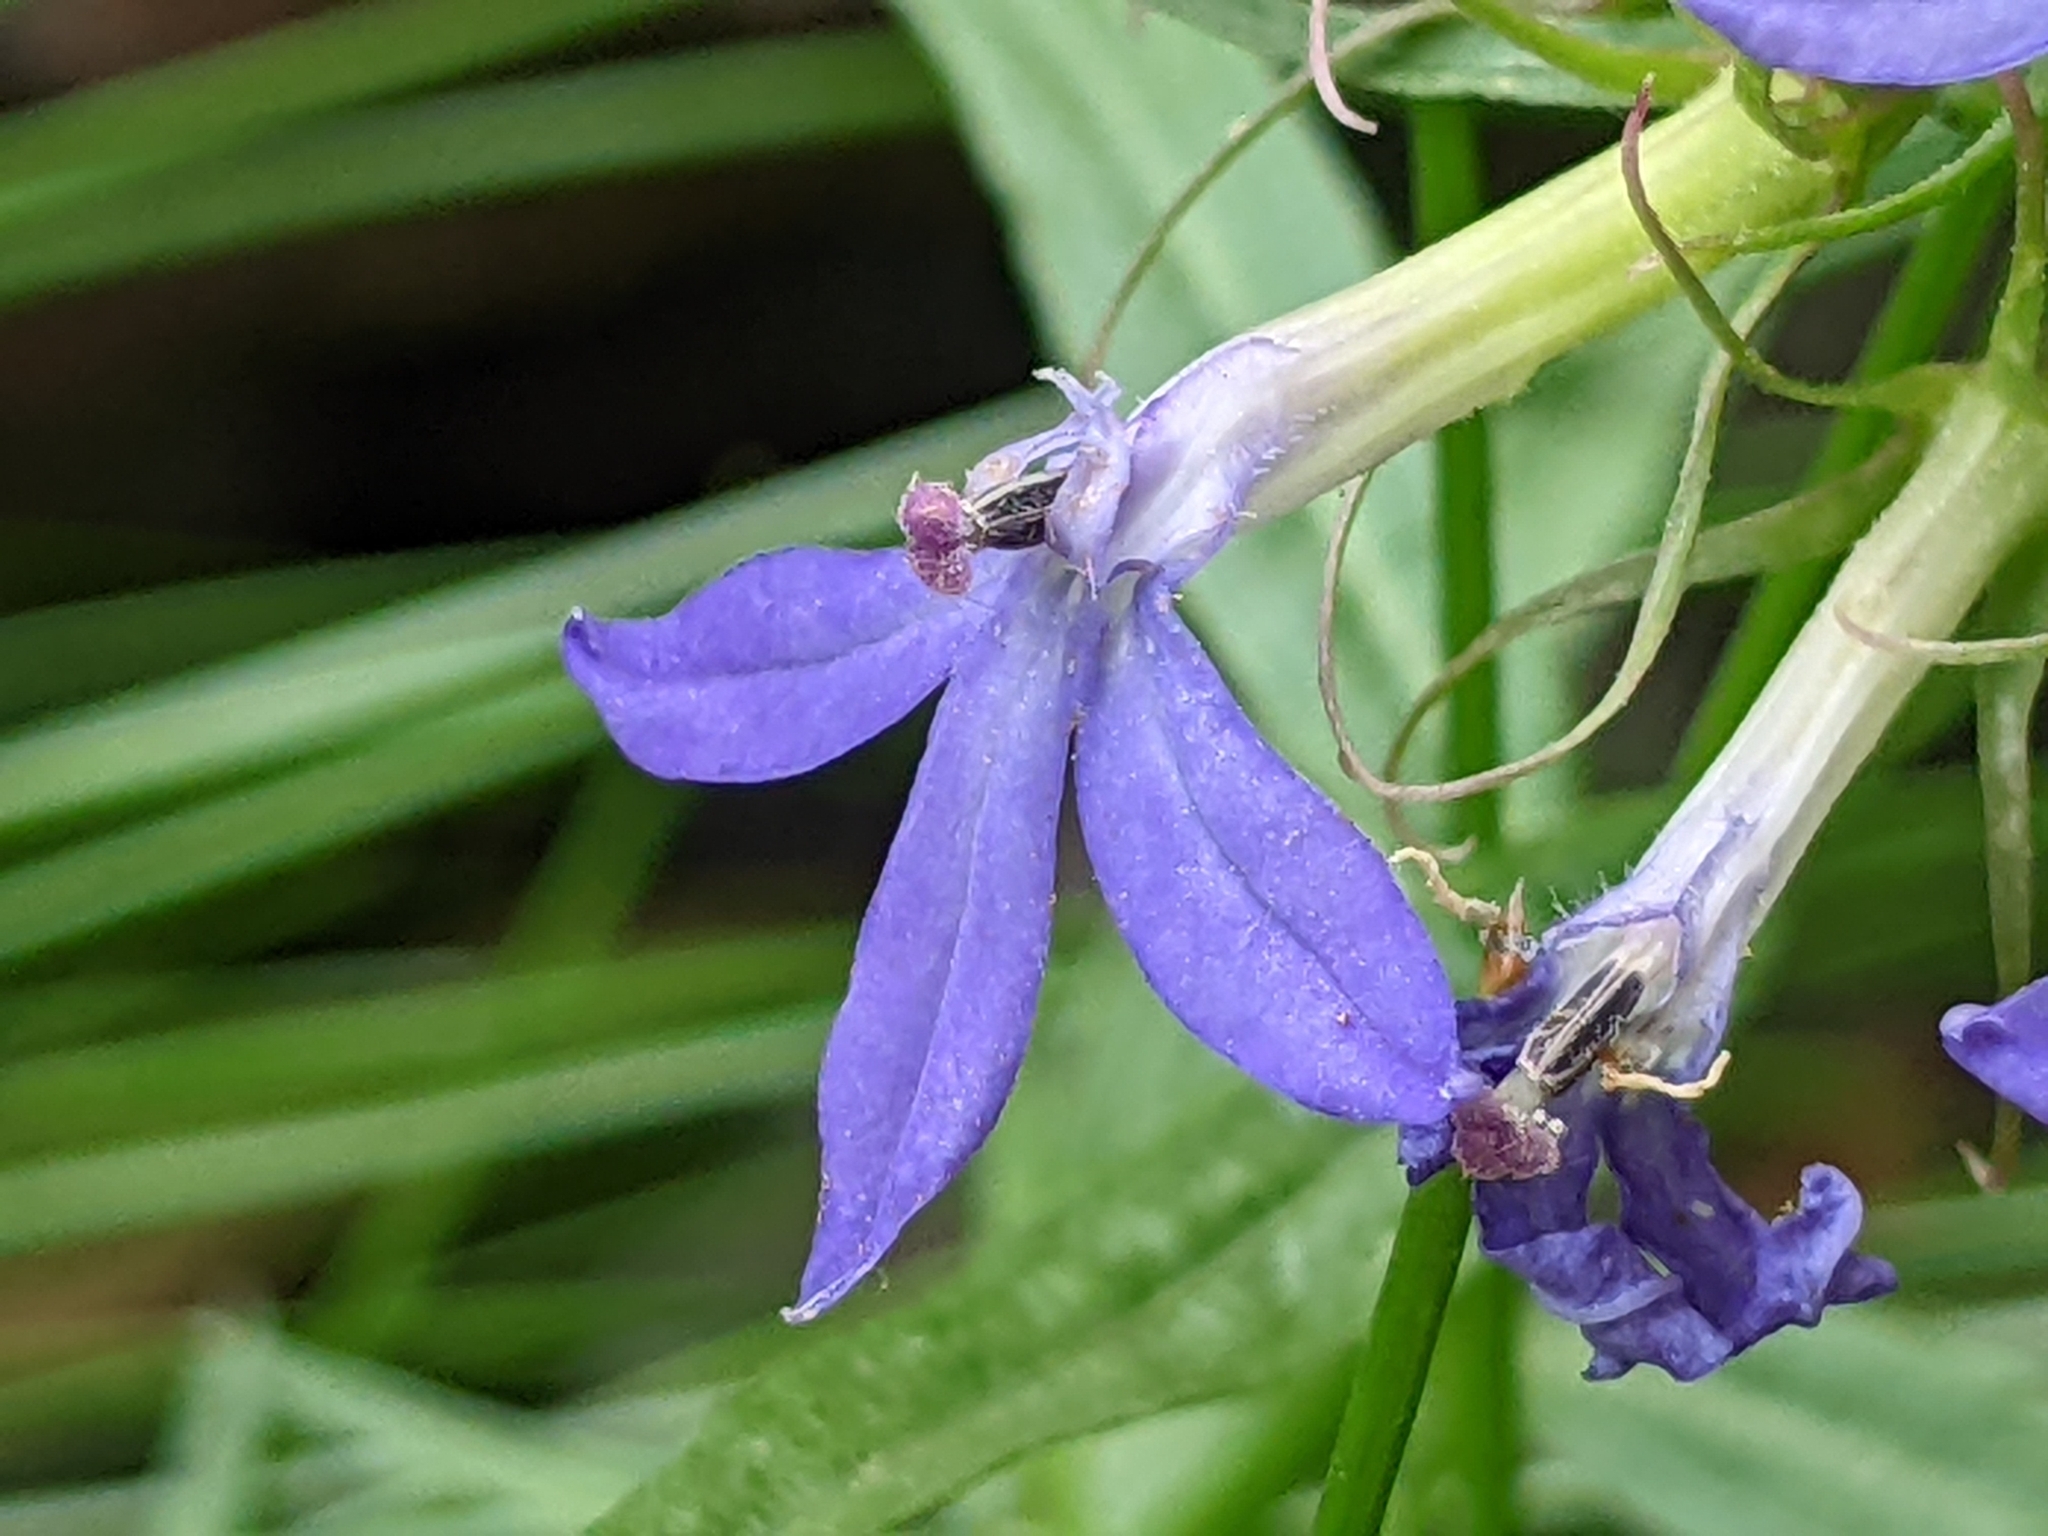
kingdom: Plantae
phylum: Tracheophyta
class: Magnoliopsida
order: Asterales
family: Campanulaceae
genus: Palmerella
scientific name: Palmerella debilis
